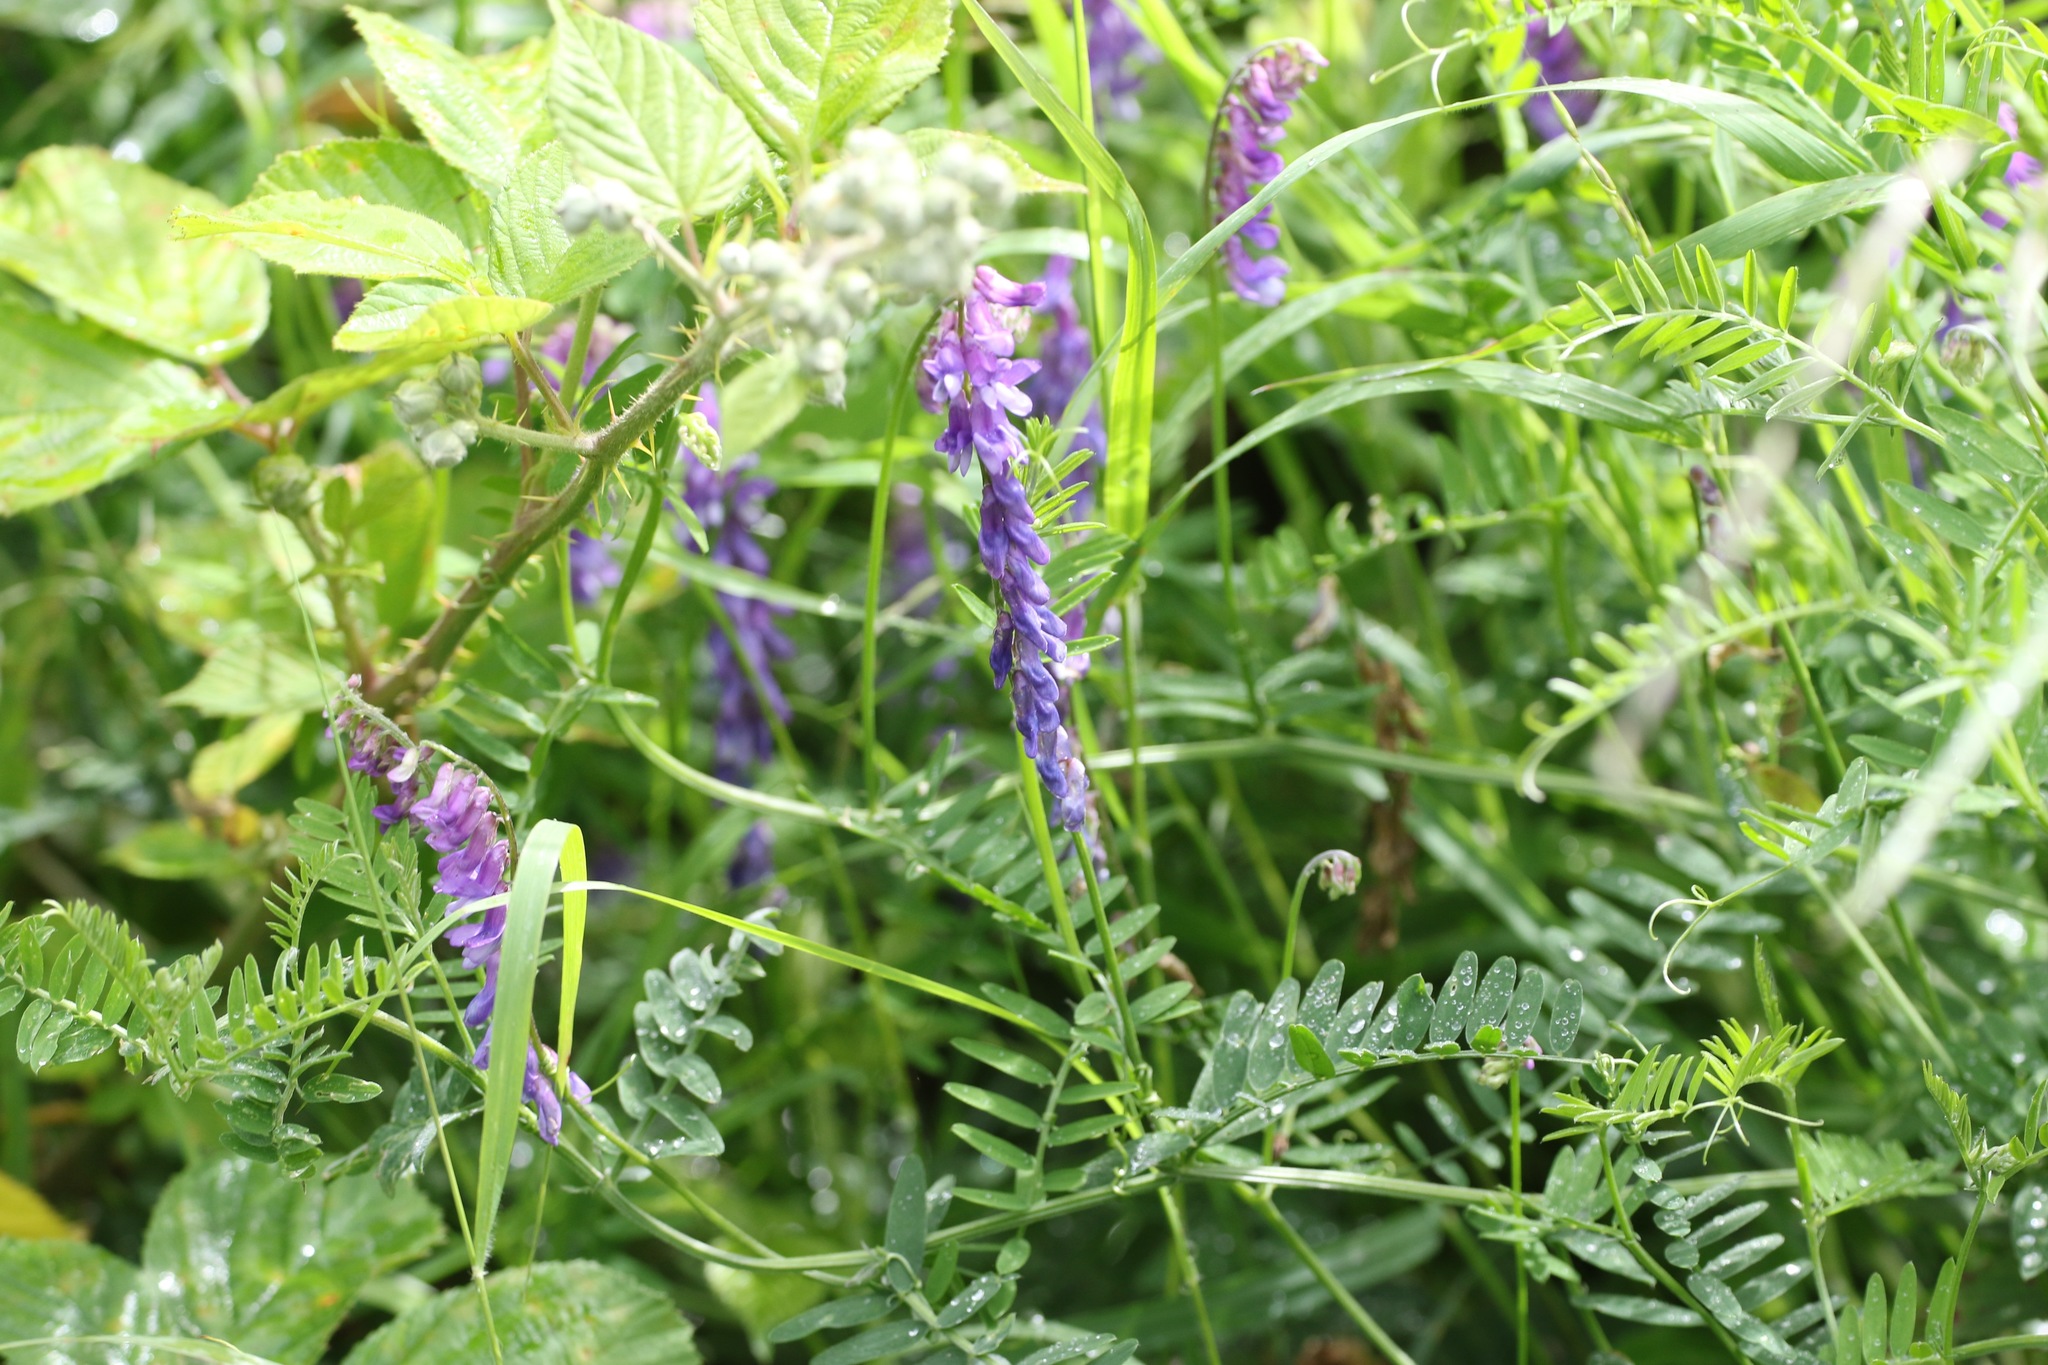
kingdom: Plantae
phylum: Tracheophyta
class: Magnoliopsida
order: Fabales
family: Fabaceae
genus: Vicia
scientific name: Vicia cracca
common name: Bird vetch
